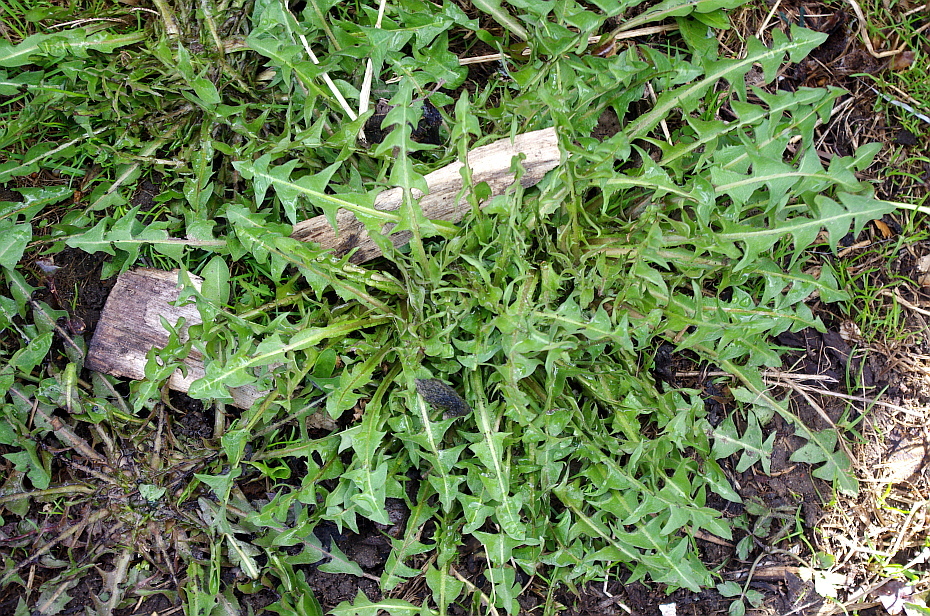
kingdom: Plantae
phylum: Tracheophyta
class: Magnoliopsida
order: Asterales
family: Asteraceae
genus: Taraxacum
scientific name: Taraxacum officinale
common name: Common dandelion
